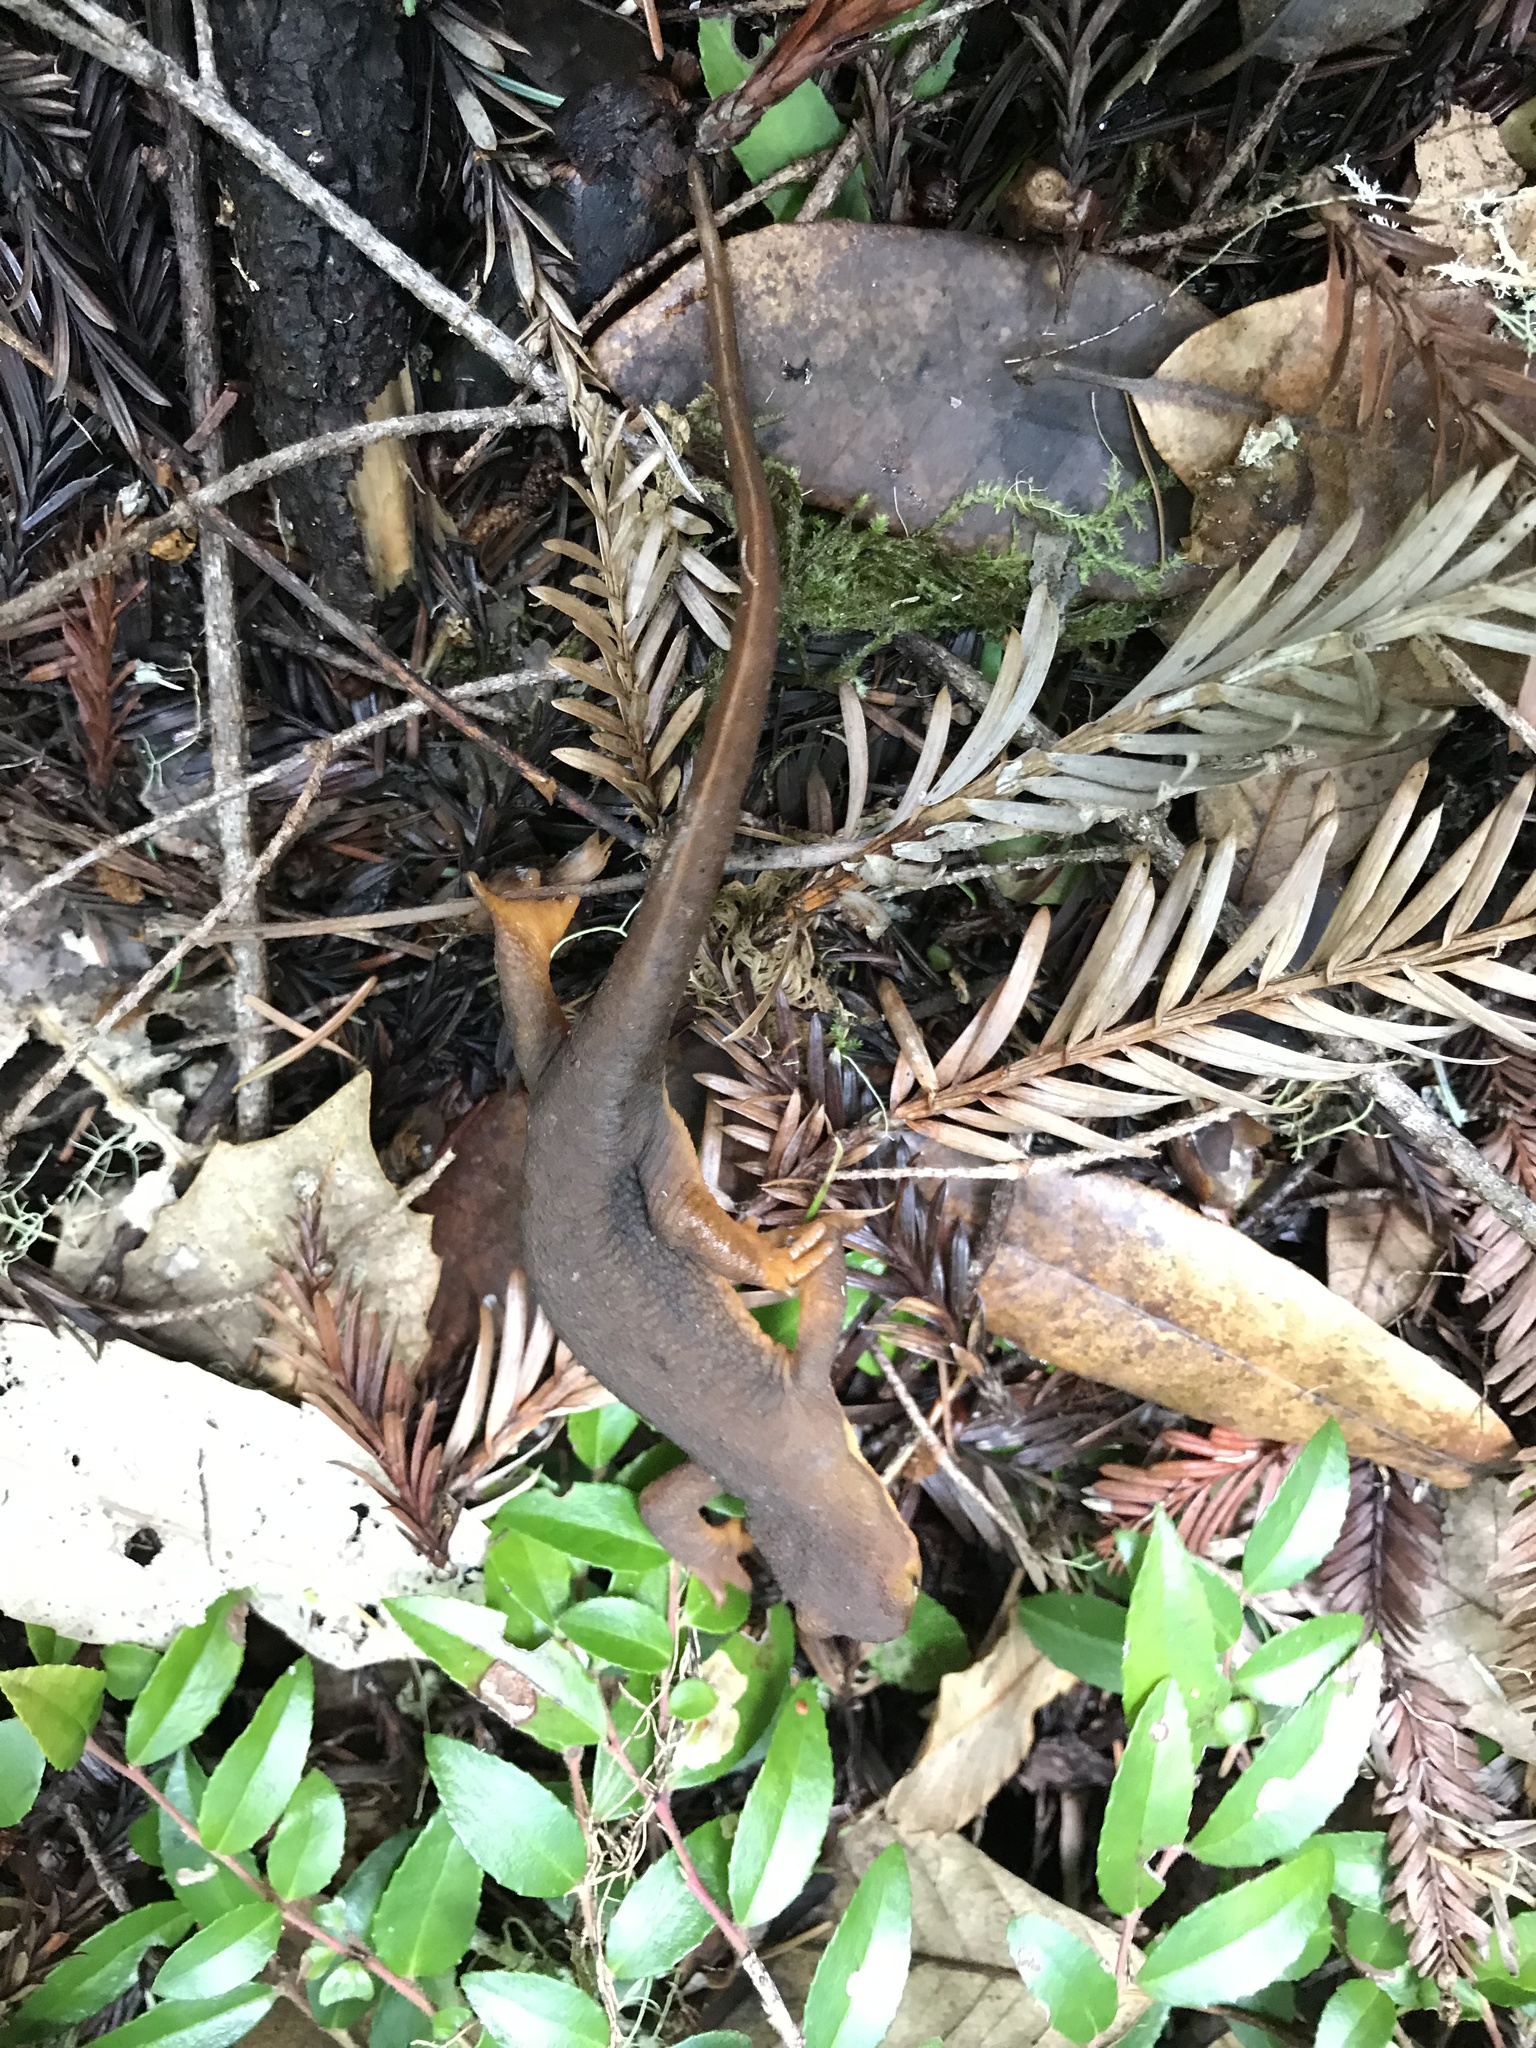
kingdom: Animalia
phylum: Chordata
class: Amphibia
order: Caudata
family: Salamandridae
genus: Taricha
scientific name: Taricha torosa
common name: California newt
